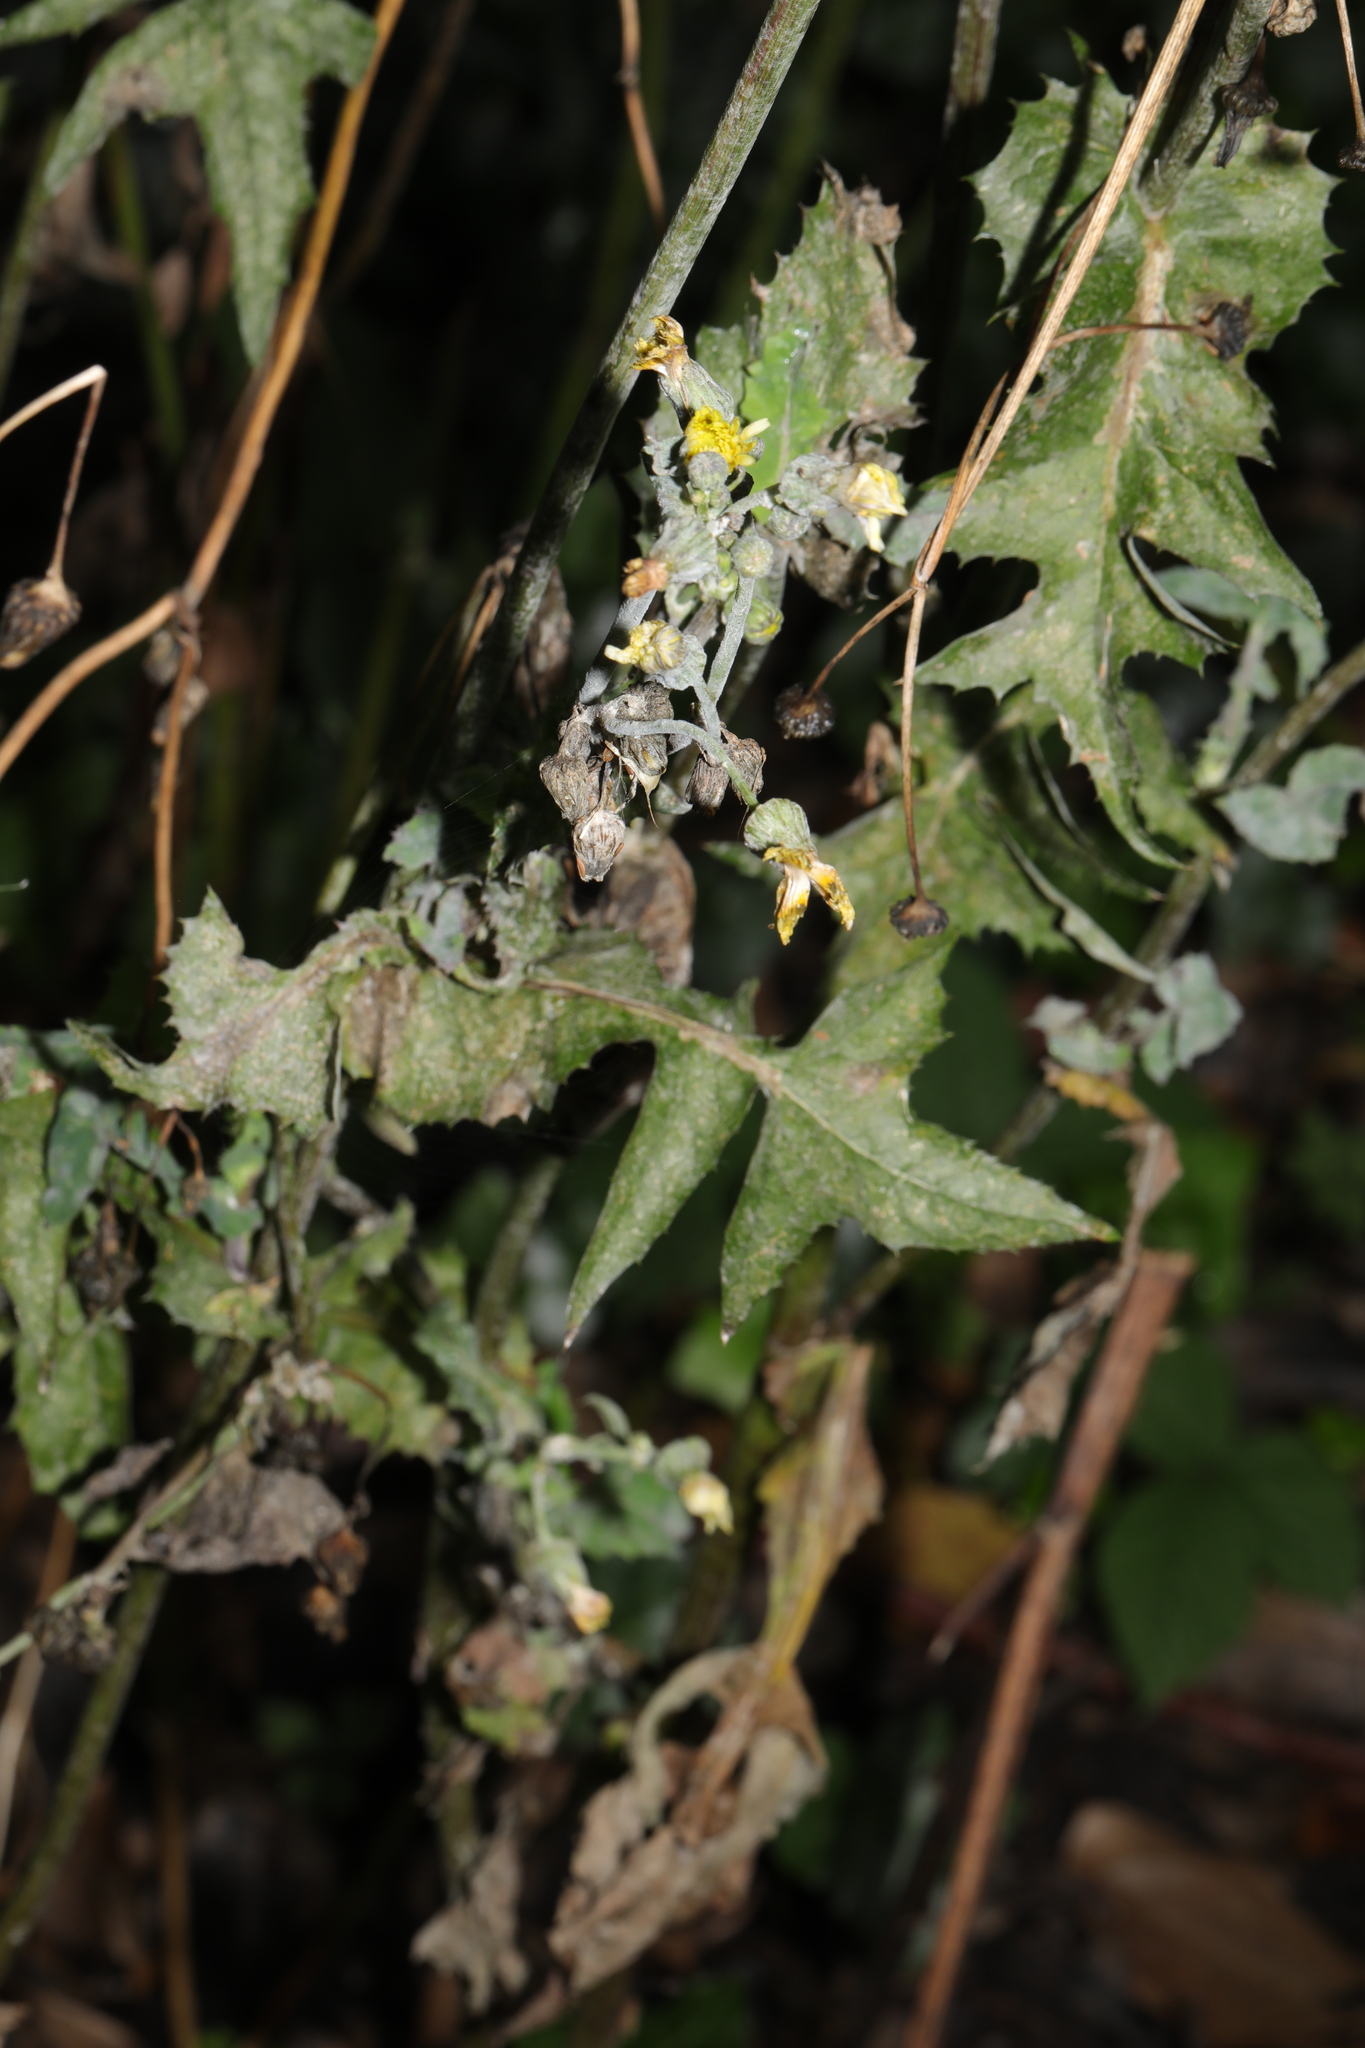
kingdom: Plantae
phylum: Tracheophyta
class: Magnoliopsida
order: Asterales
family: Asteraceae
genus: Sonchus
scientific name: Sonchus oleraceus
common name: Common sowthistle
